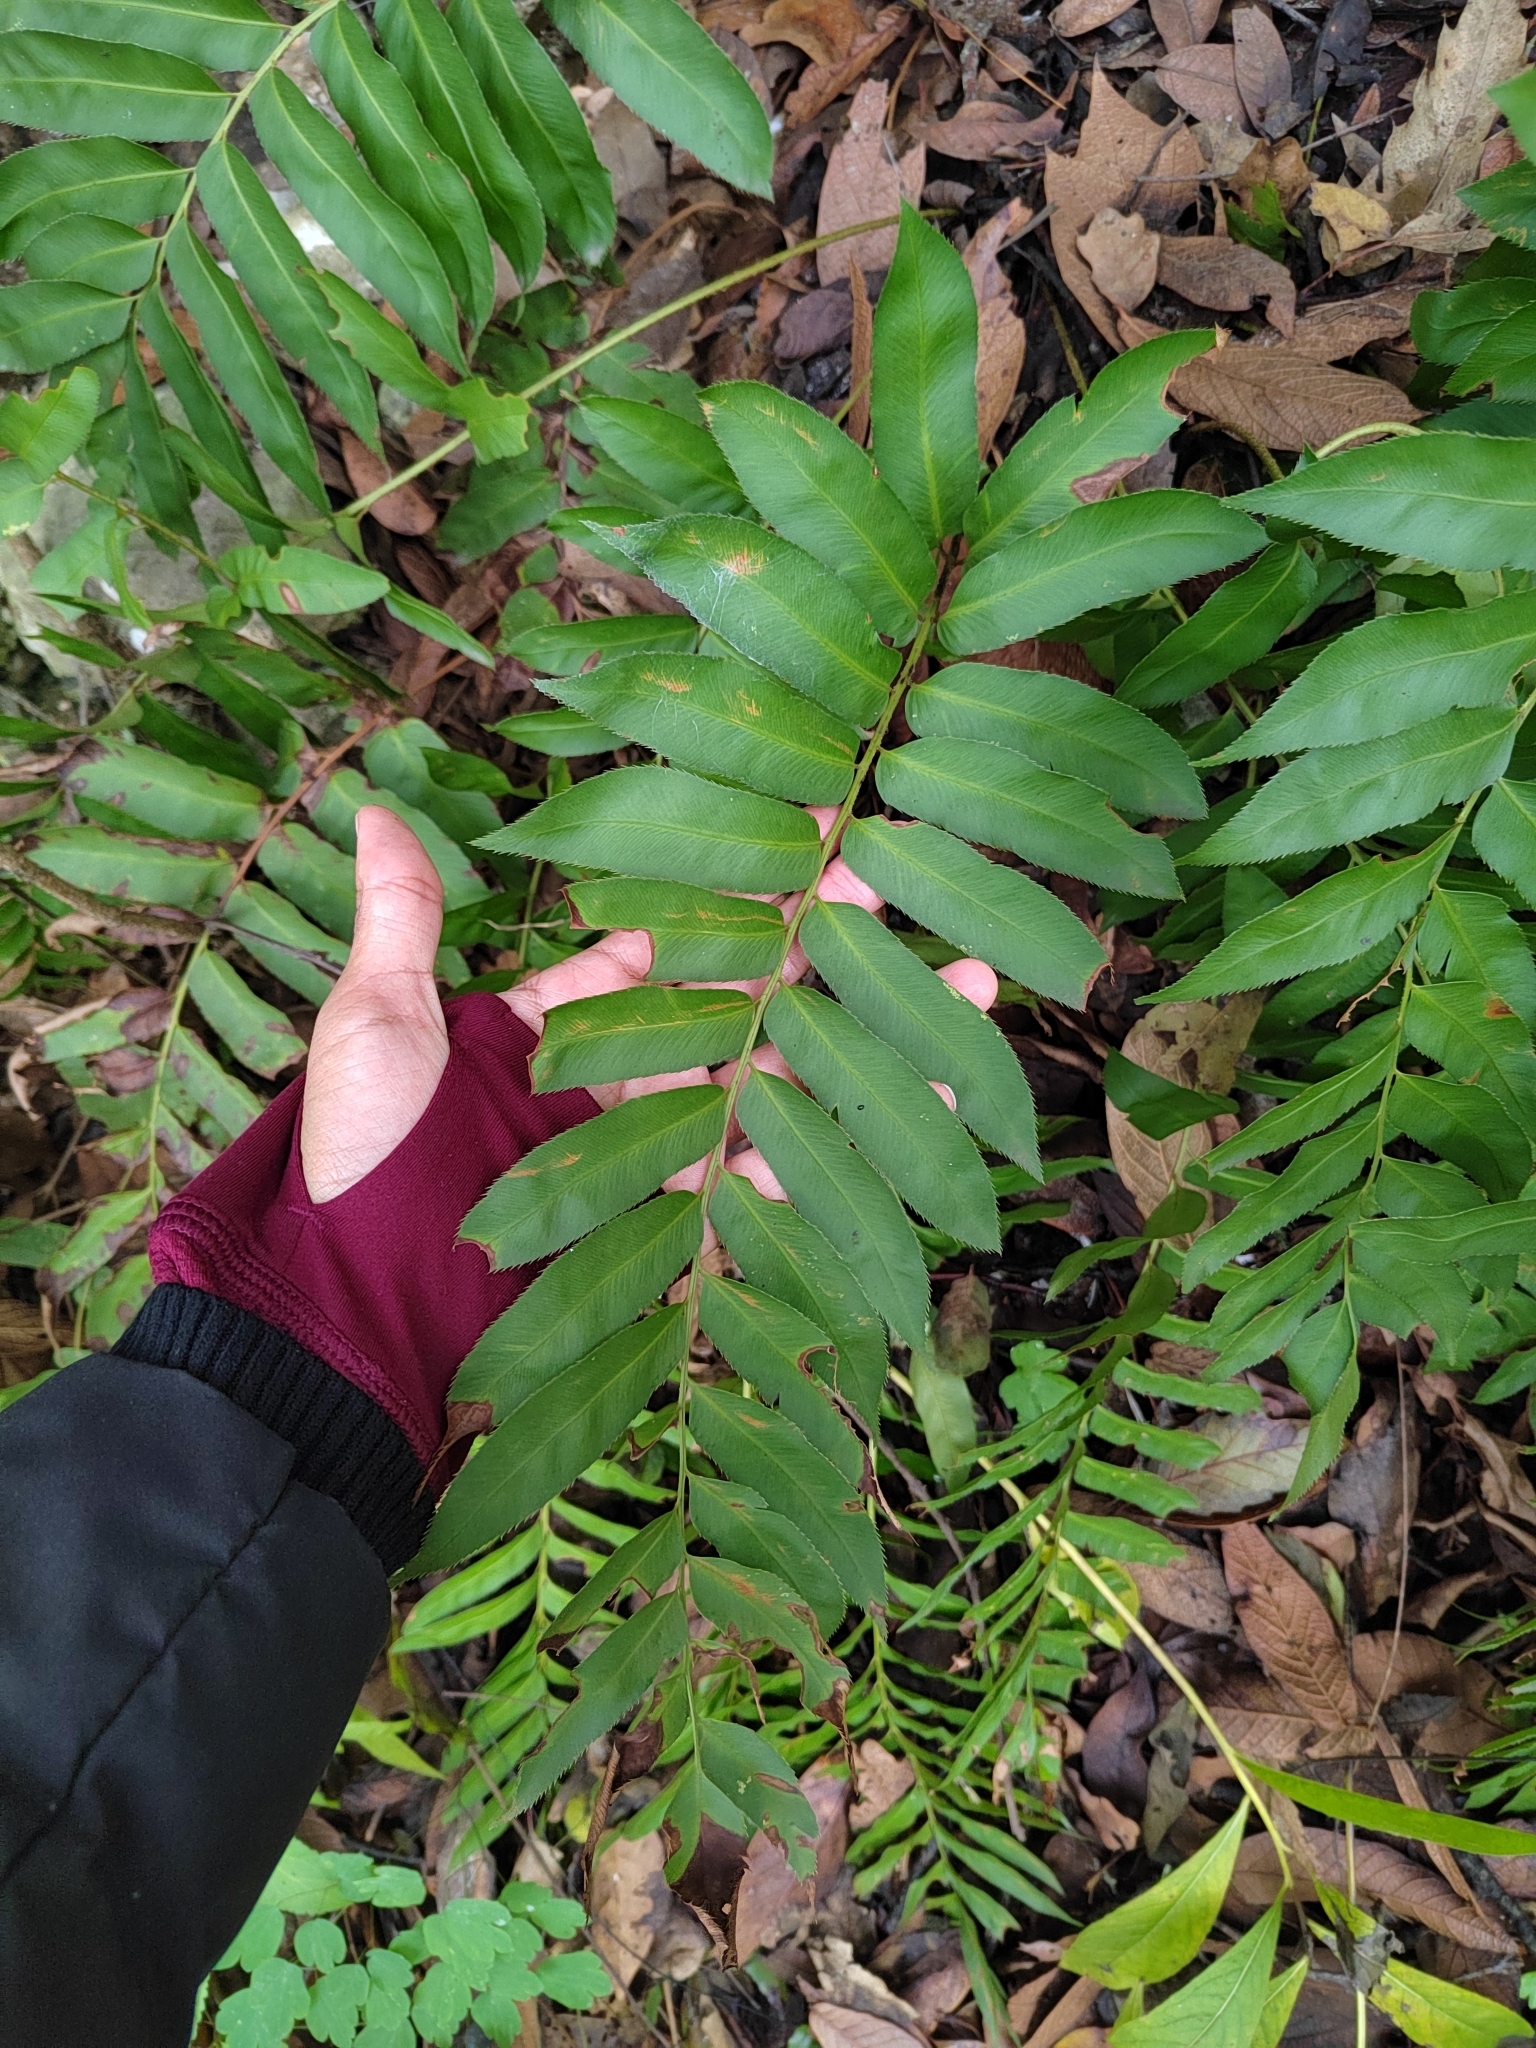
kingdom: Plantae
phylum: Tracheophyta
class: Polypodiopsida
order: Polypodiales
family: Dryopteridaceae
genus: Phanerophlebia
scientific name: Phanerophlebia umbonata
